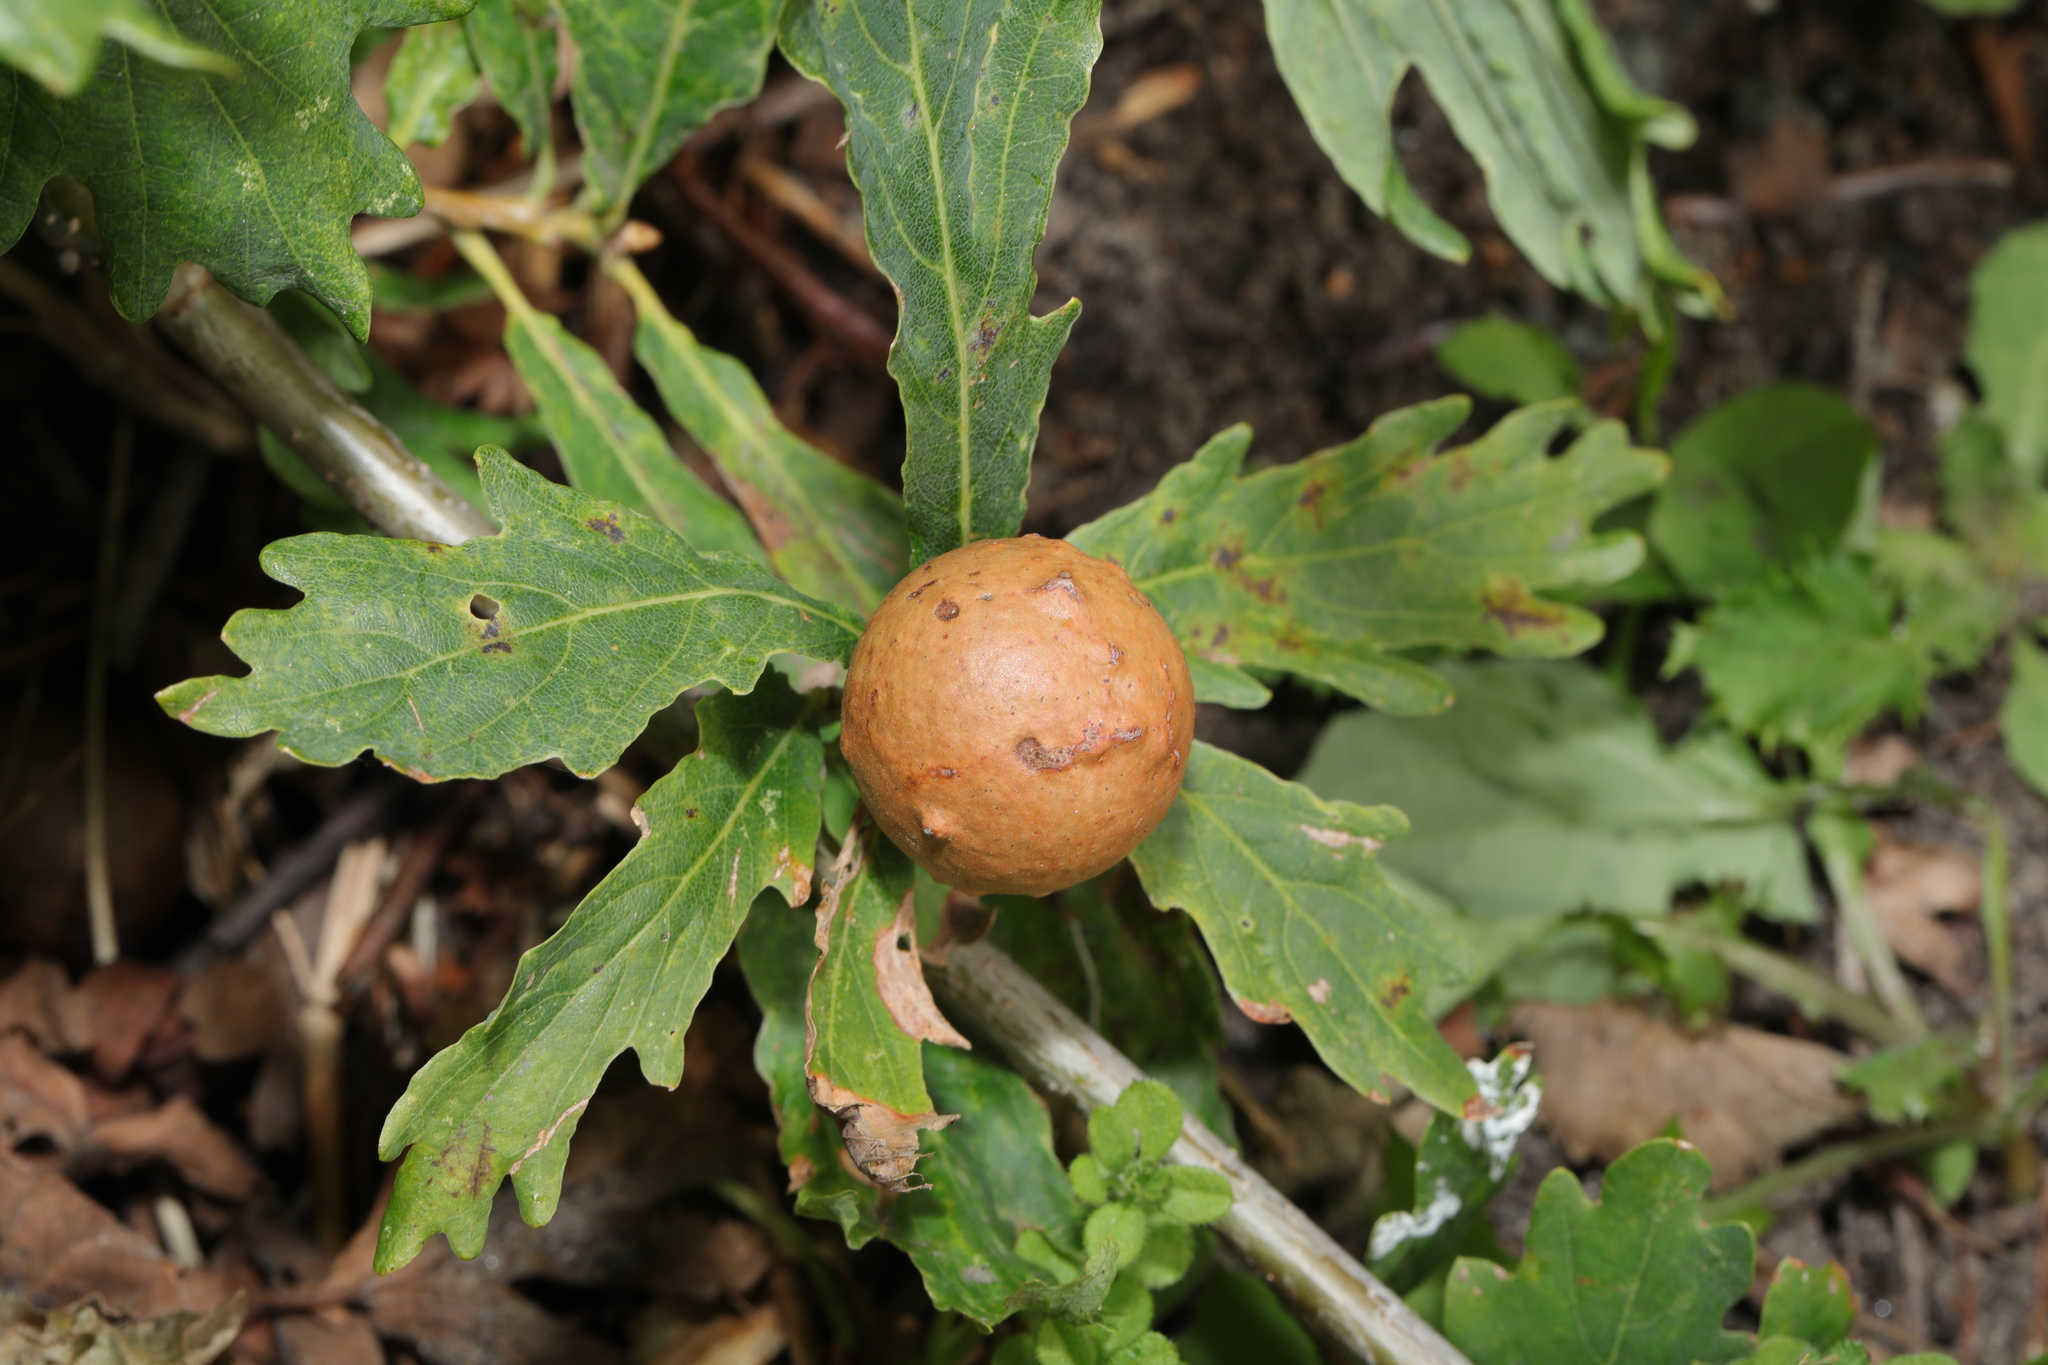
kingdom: Animalia
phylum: Arthropoda
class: Insecta
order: Hymenoptera
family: Cynipidae
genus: Andricus
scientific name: Andricus kollari
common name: Marble gall
